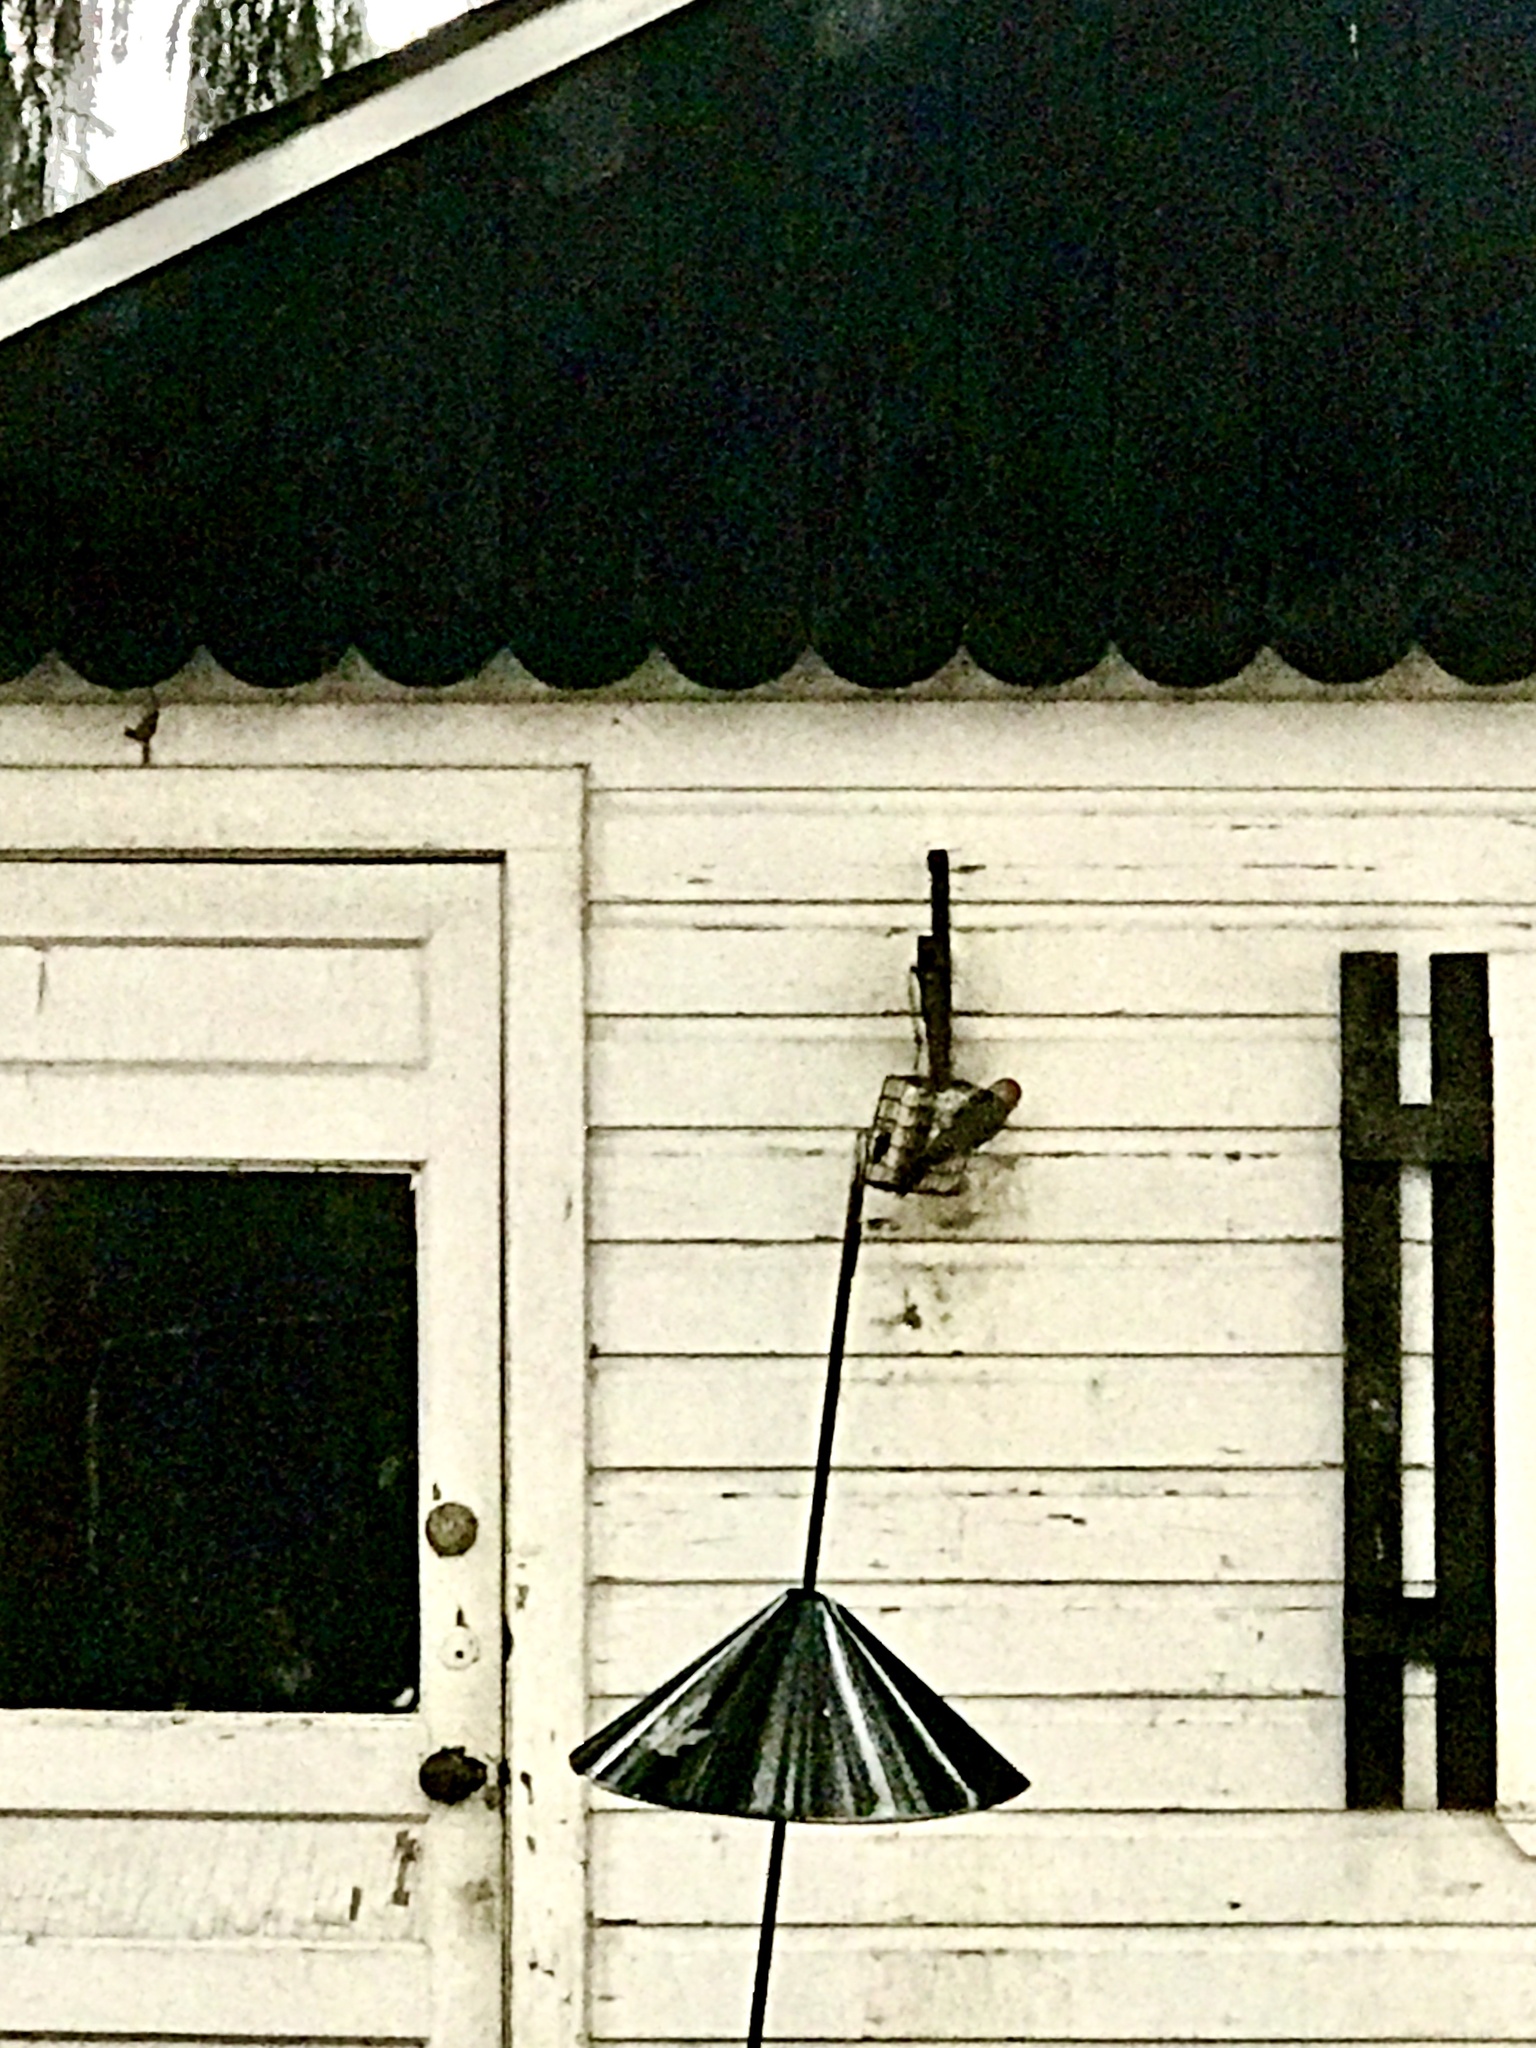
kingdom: Animalia
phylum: Chordata
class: Aves
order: Piciformes
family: Picidae
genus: Melanerpes
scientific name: Melanerpes carolinus
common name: Red-bellied woodpecker
